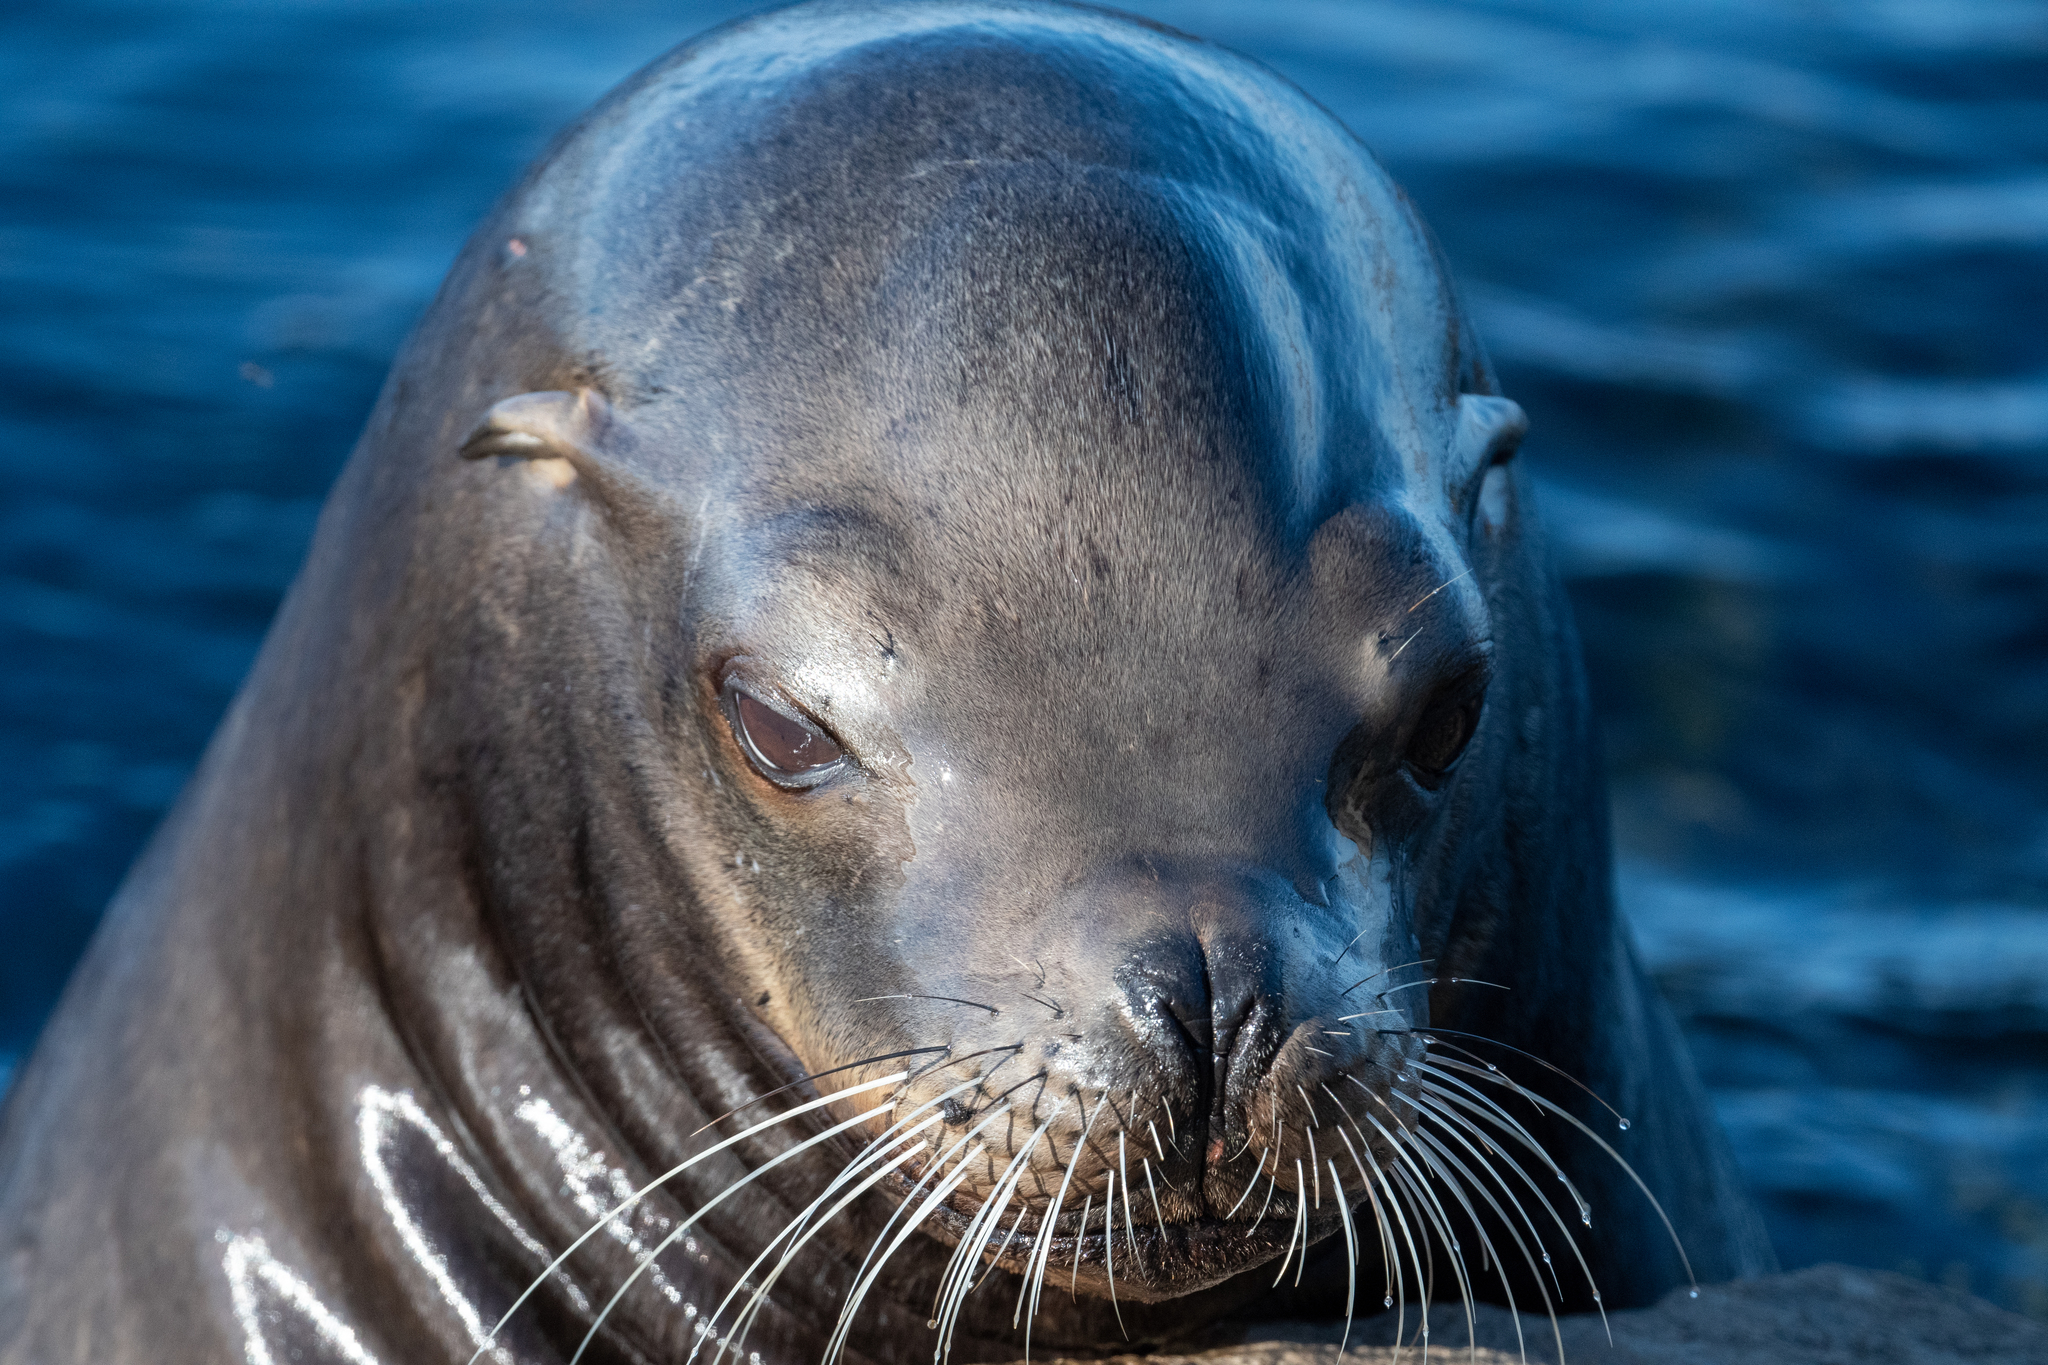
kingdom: Animalia
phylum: Chordata
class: Mammalia
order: Carnivora
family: Otariidae
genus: Zalophus
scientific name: Zalophus californianus
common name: California sea lion
